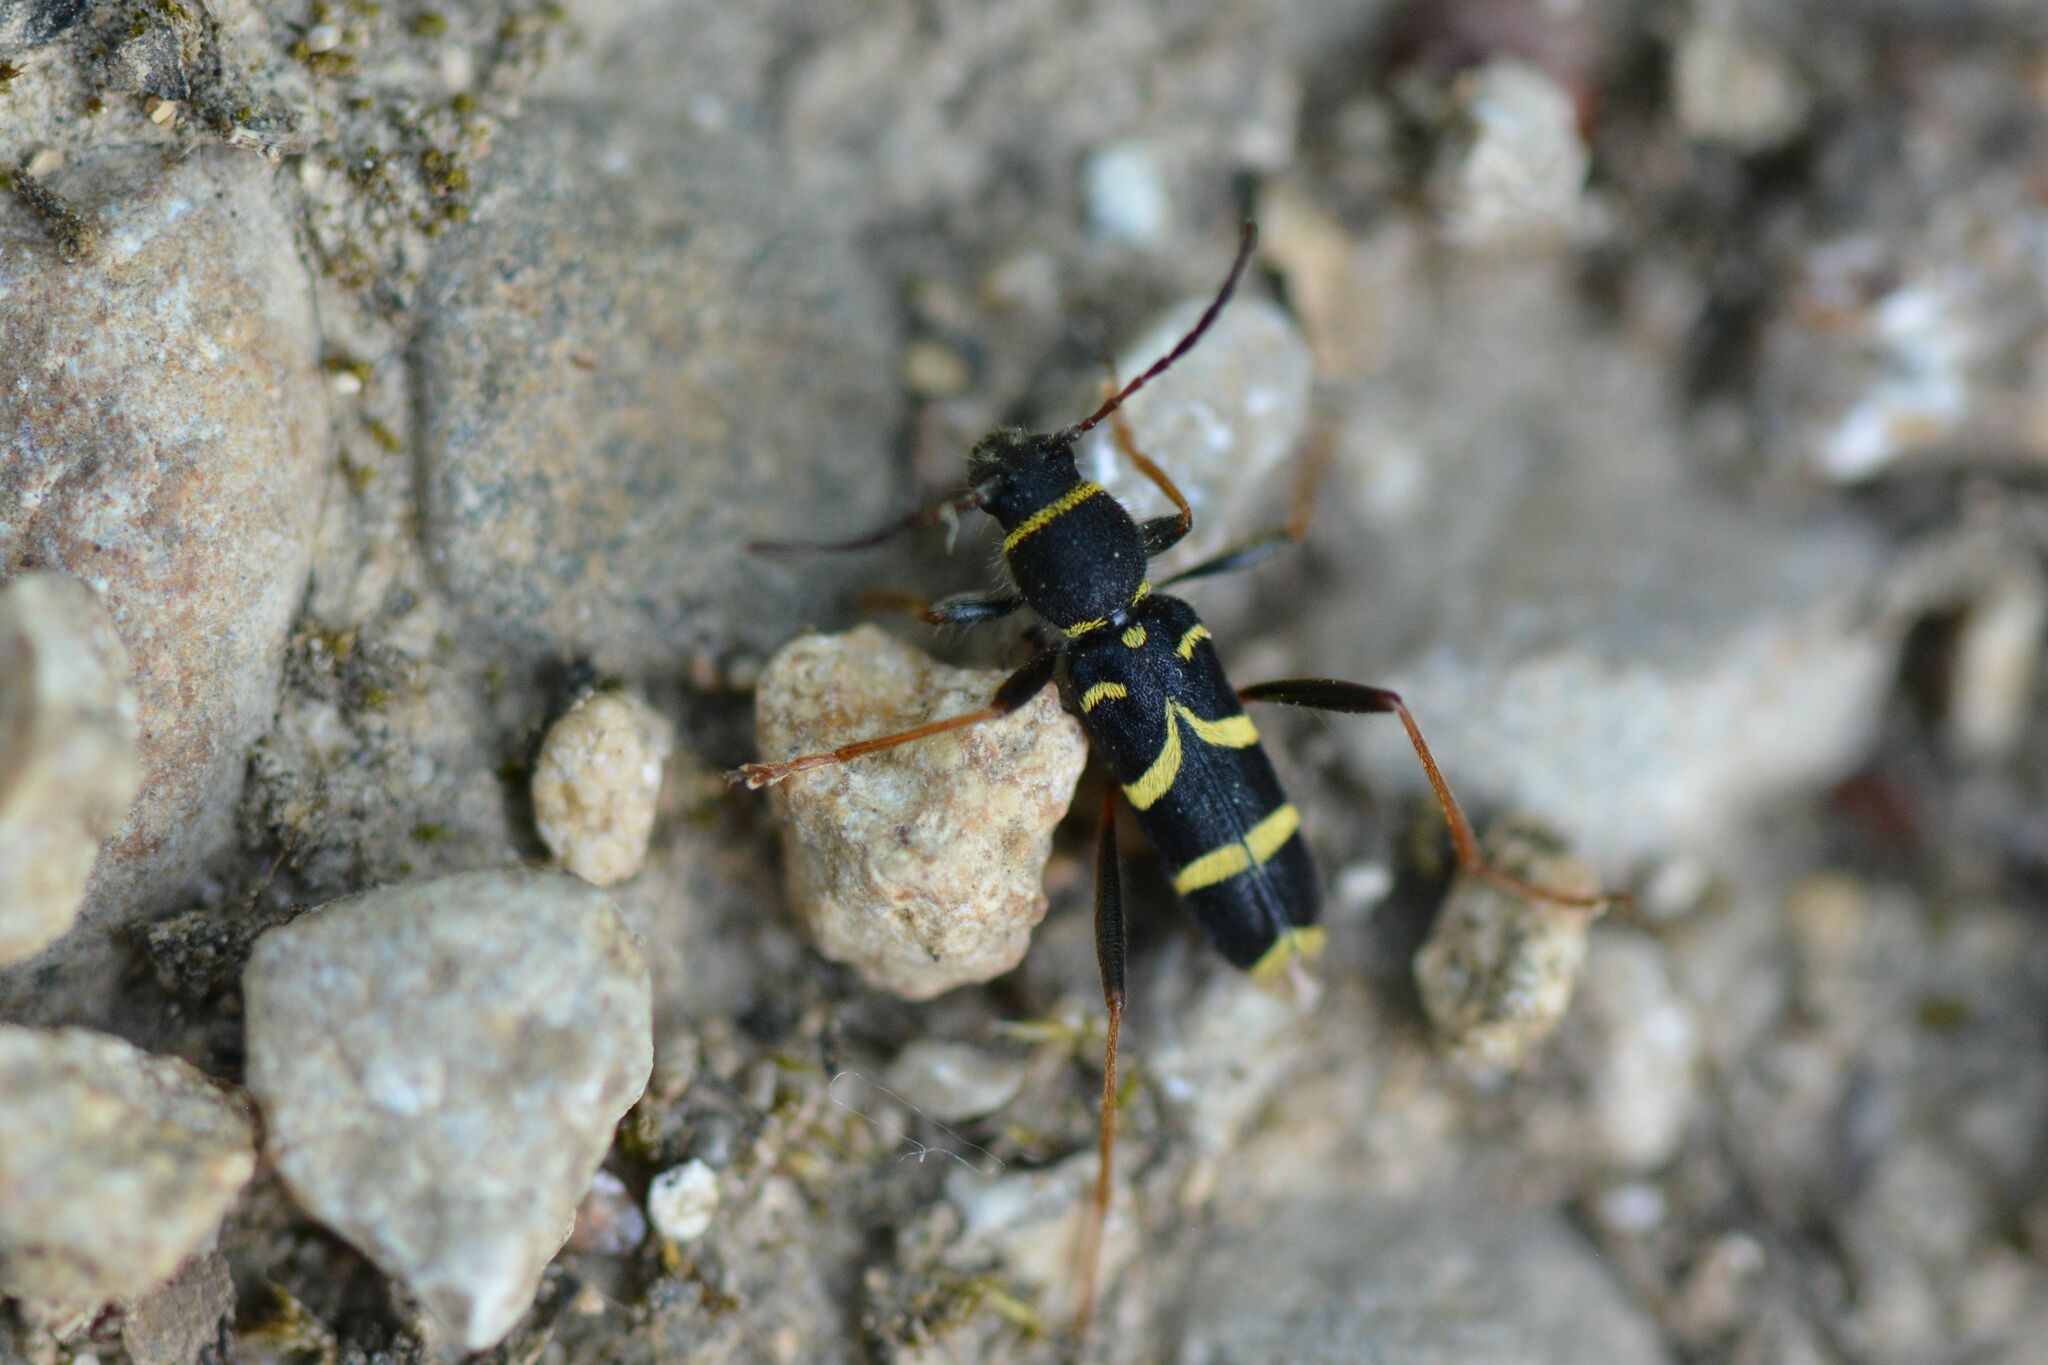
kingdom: Animalia
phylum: Arthropoda
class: Insecta
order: Coleoptera
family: Cerambycidae
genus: Clytus
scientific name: Clytus arietis
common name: Wasp beetle
